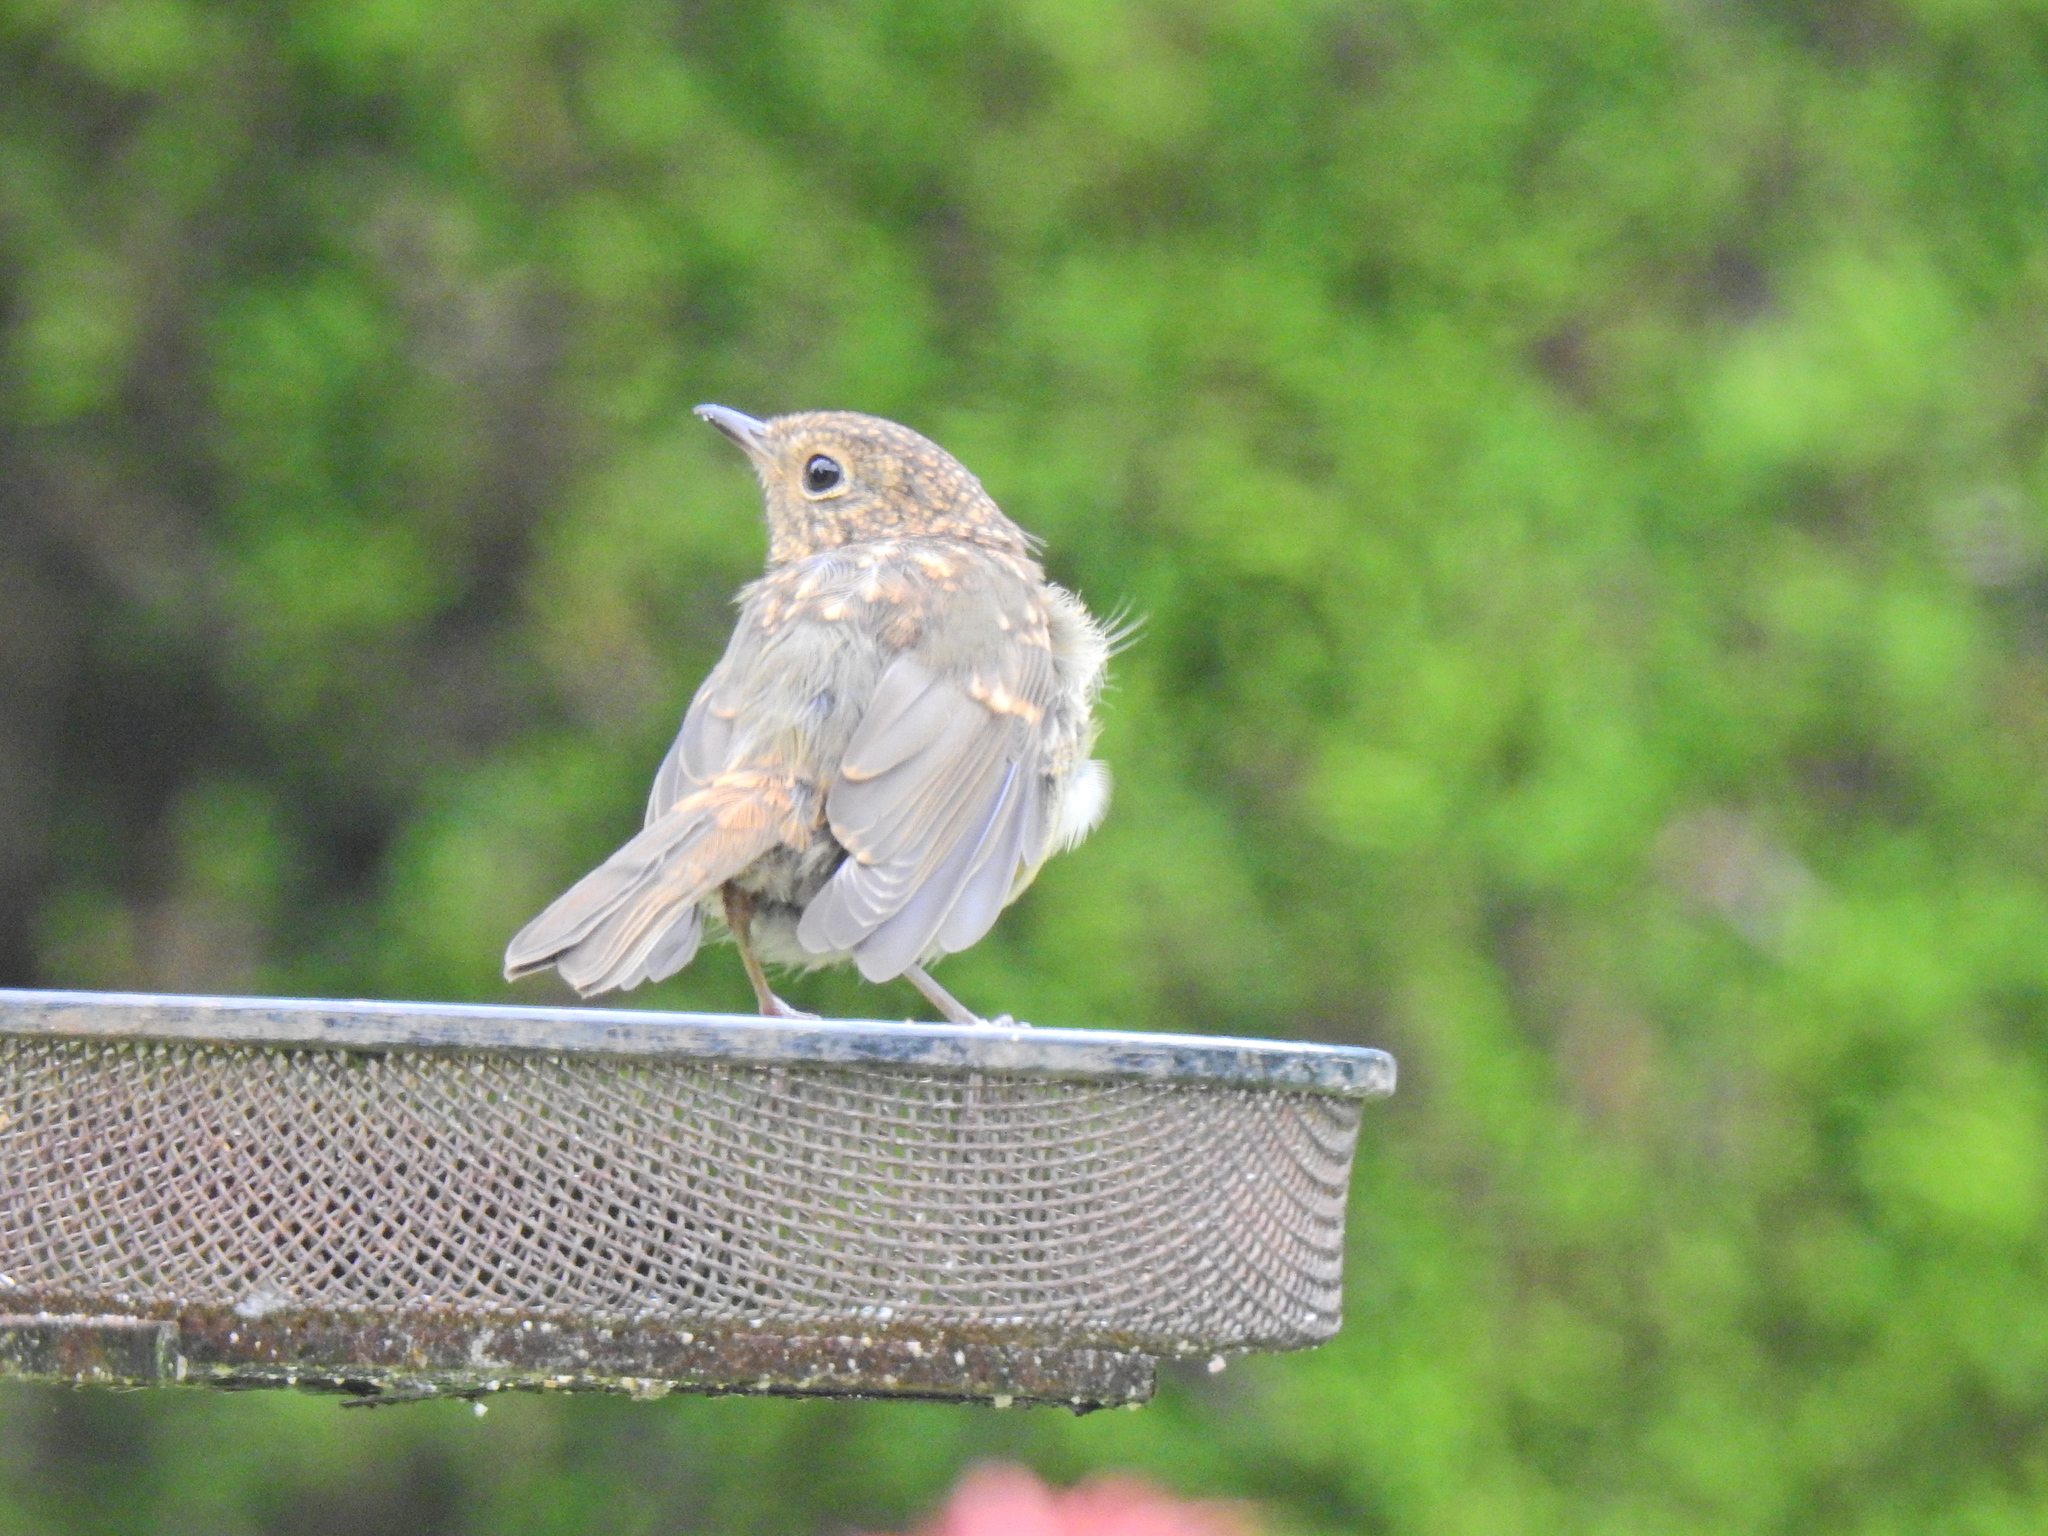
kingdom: Animalia
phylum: Chordata
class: Aves
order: Passeriformes
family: Muscicapidae
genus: Erithacus
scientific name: Erithacus rubecula
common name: European robin
